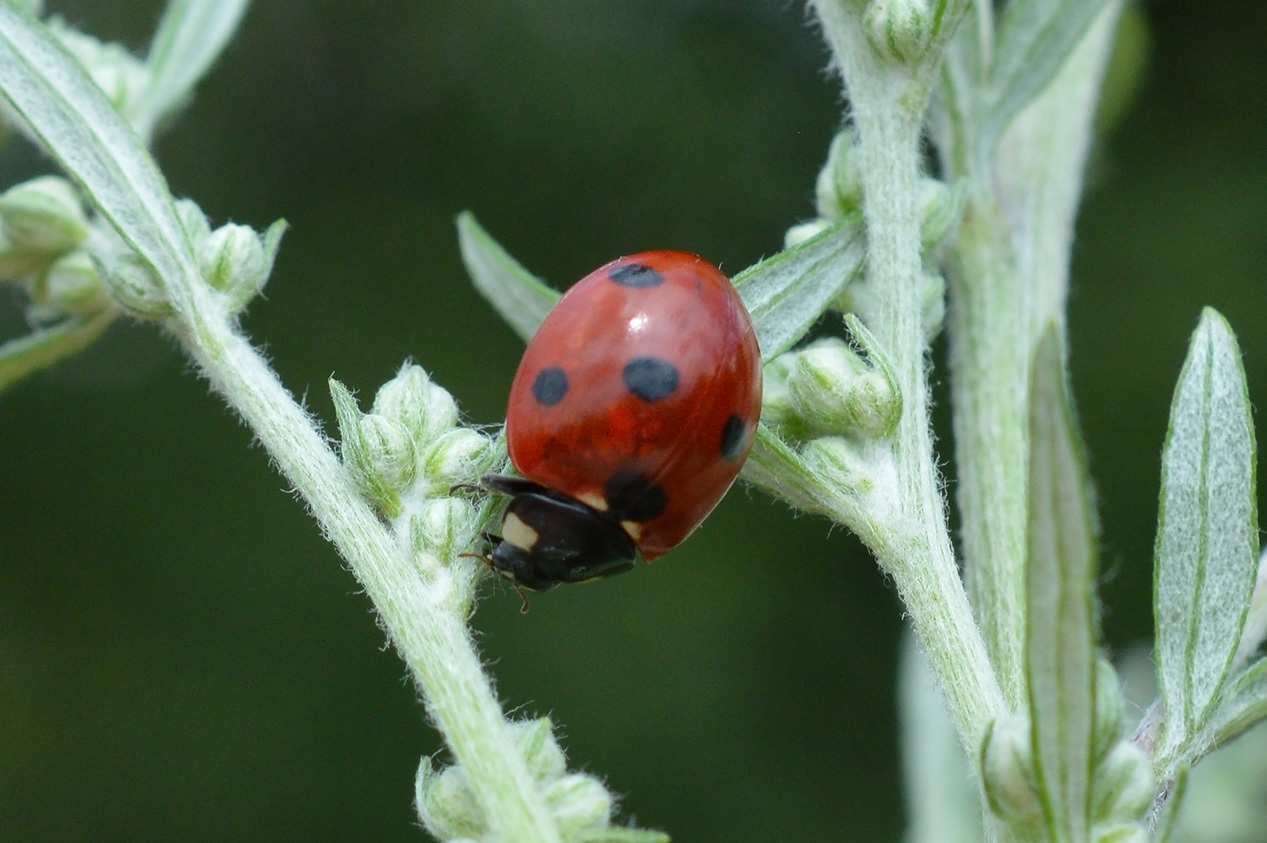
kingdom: Animalia
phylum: Arthropoda
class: Insecta
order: Coleoptera
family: Coccinellidae
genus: Coccinella
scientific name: Coccinella septempunctata
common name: Sevenspotted lady beetle
